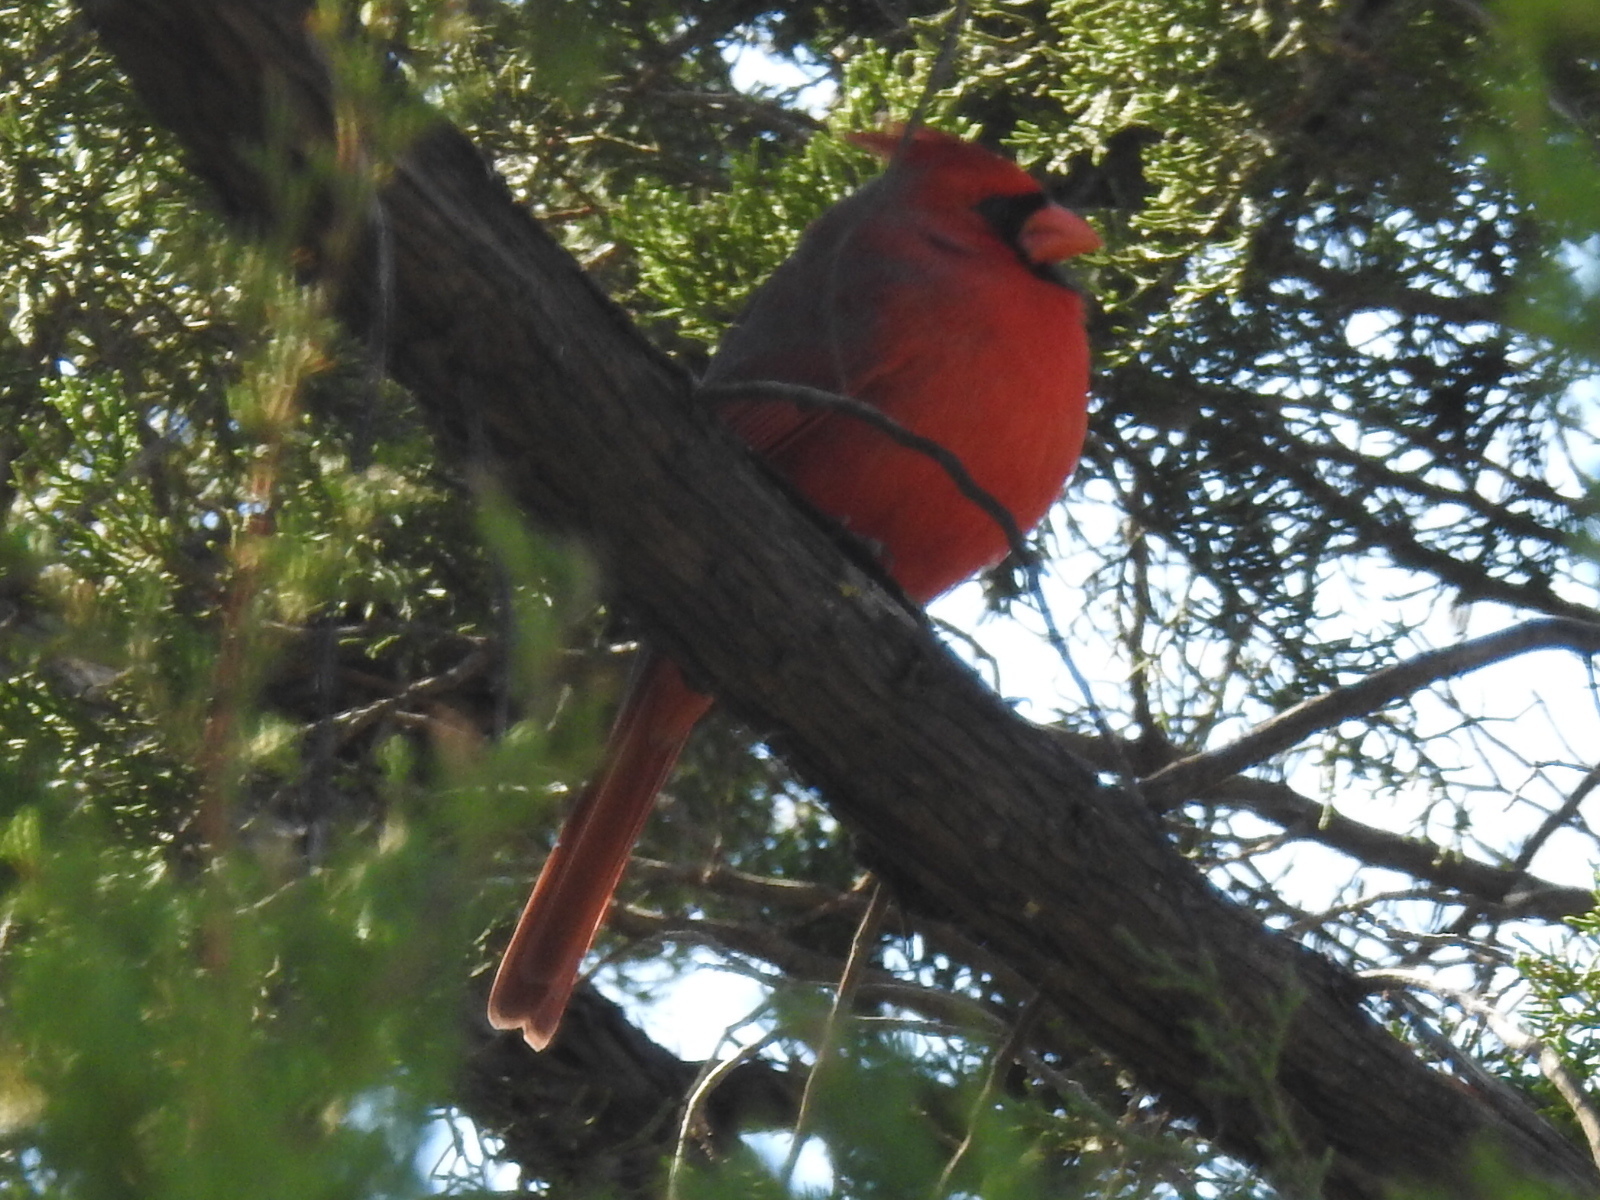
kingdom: Animalia
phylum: Chordata
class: Aves
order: Passeriformes
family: Cardinalidae
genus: Cardinalis
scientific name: Cardinalis cardinalis
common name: Northern cardinal
